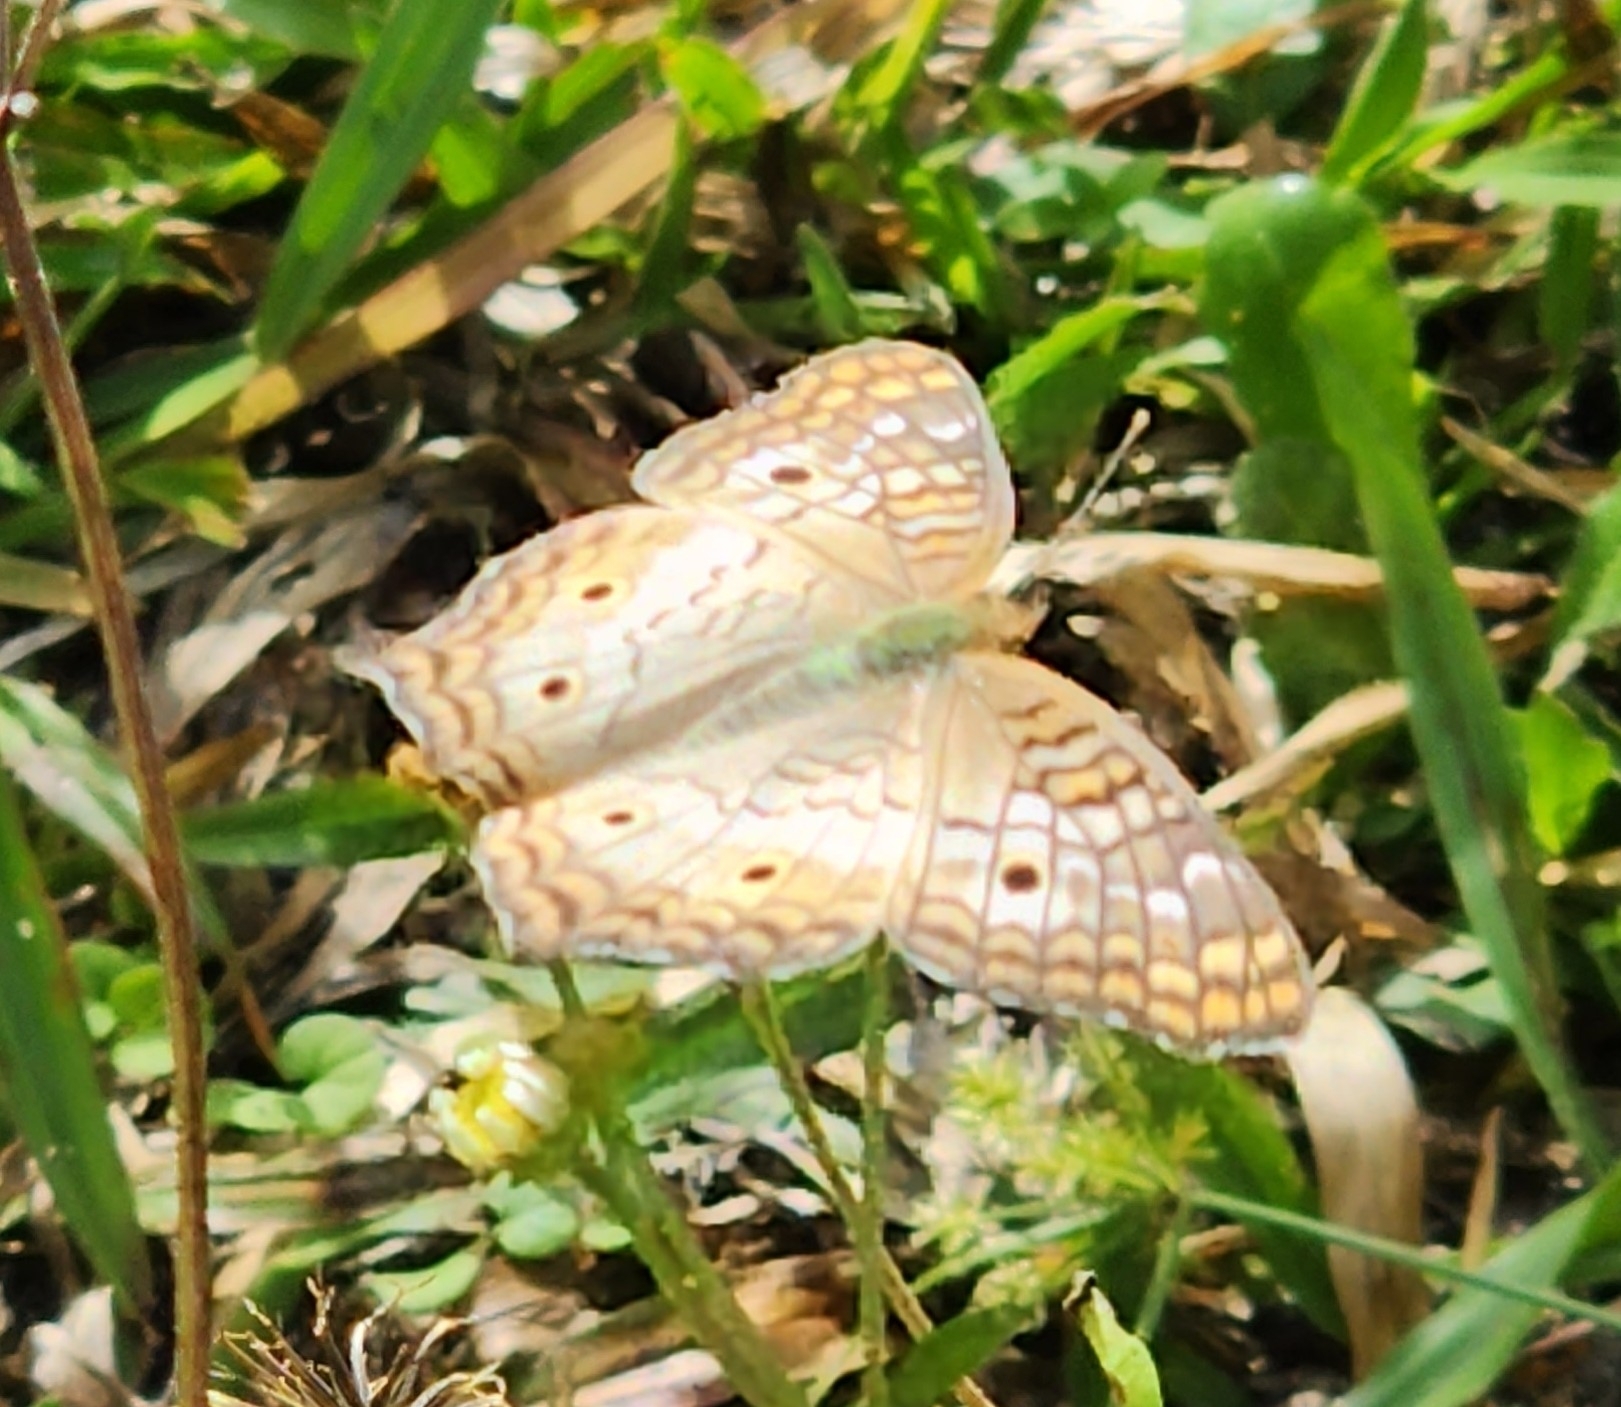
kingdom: Animalia
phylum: Arthropoda
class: Insecta
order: Lepidoptera
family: Nymphalidae
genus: Anartia
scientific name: Anartia jatrophae
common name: White peacock
